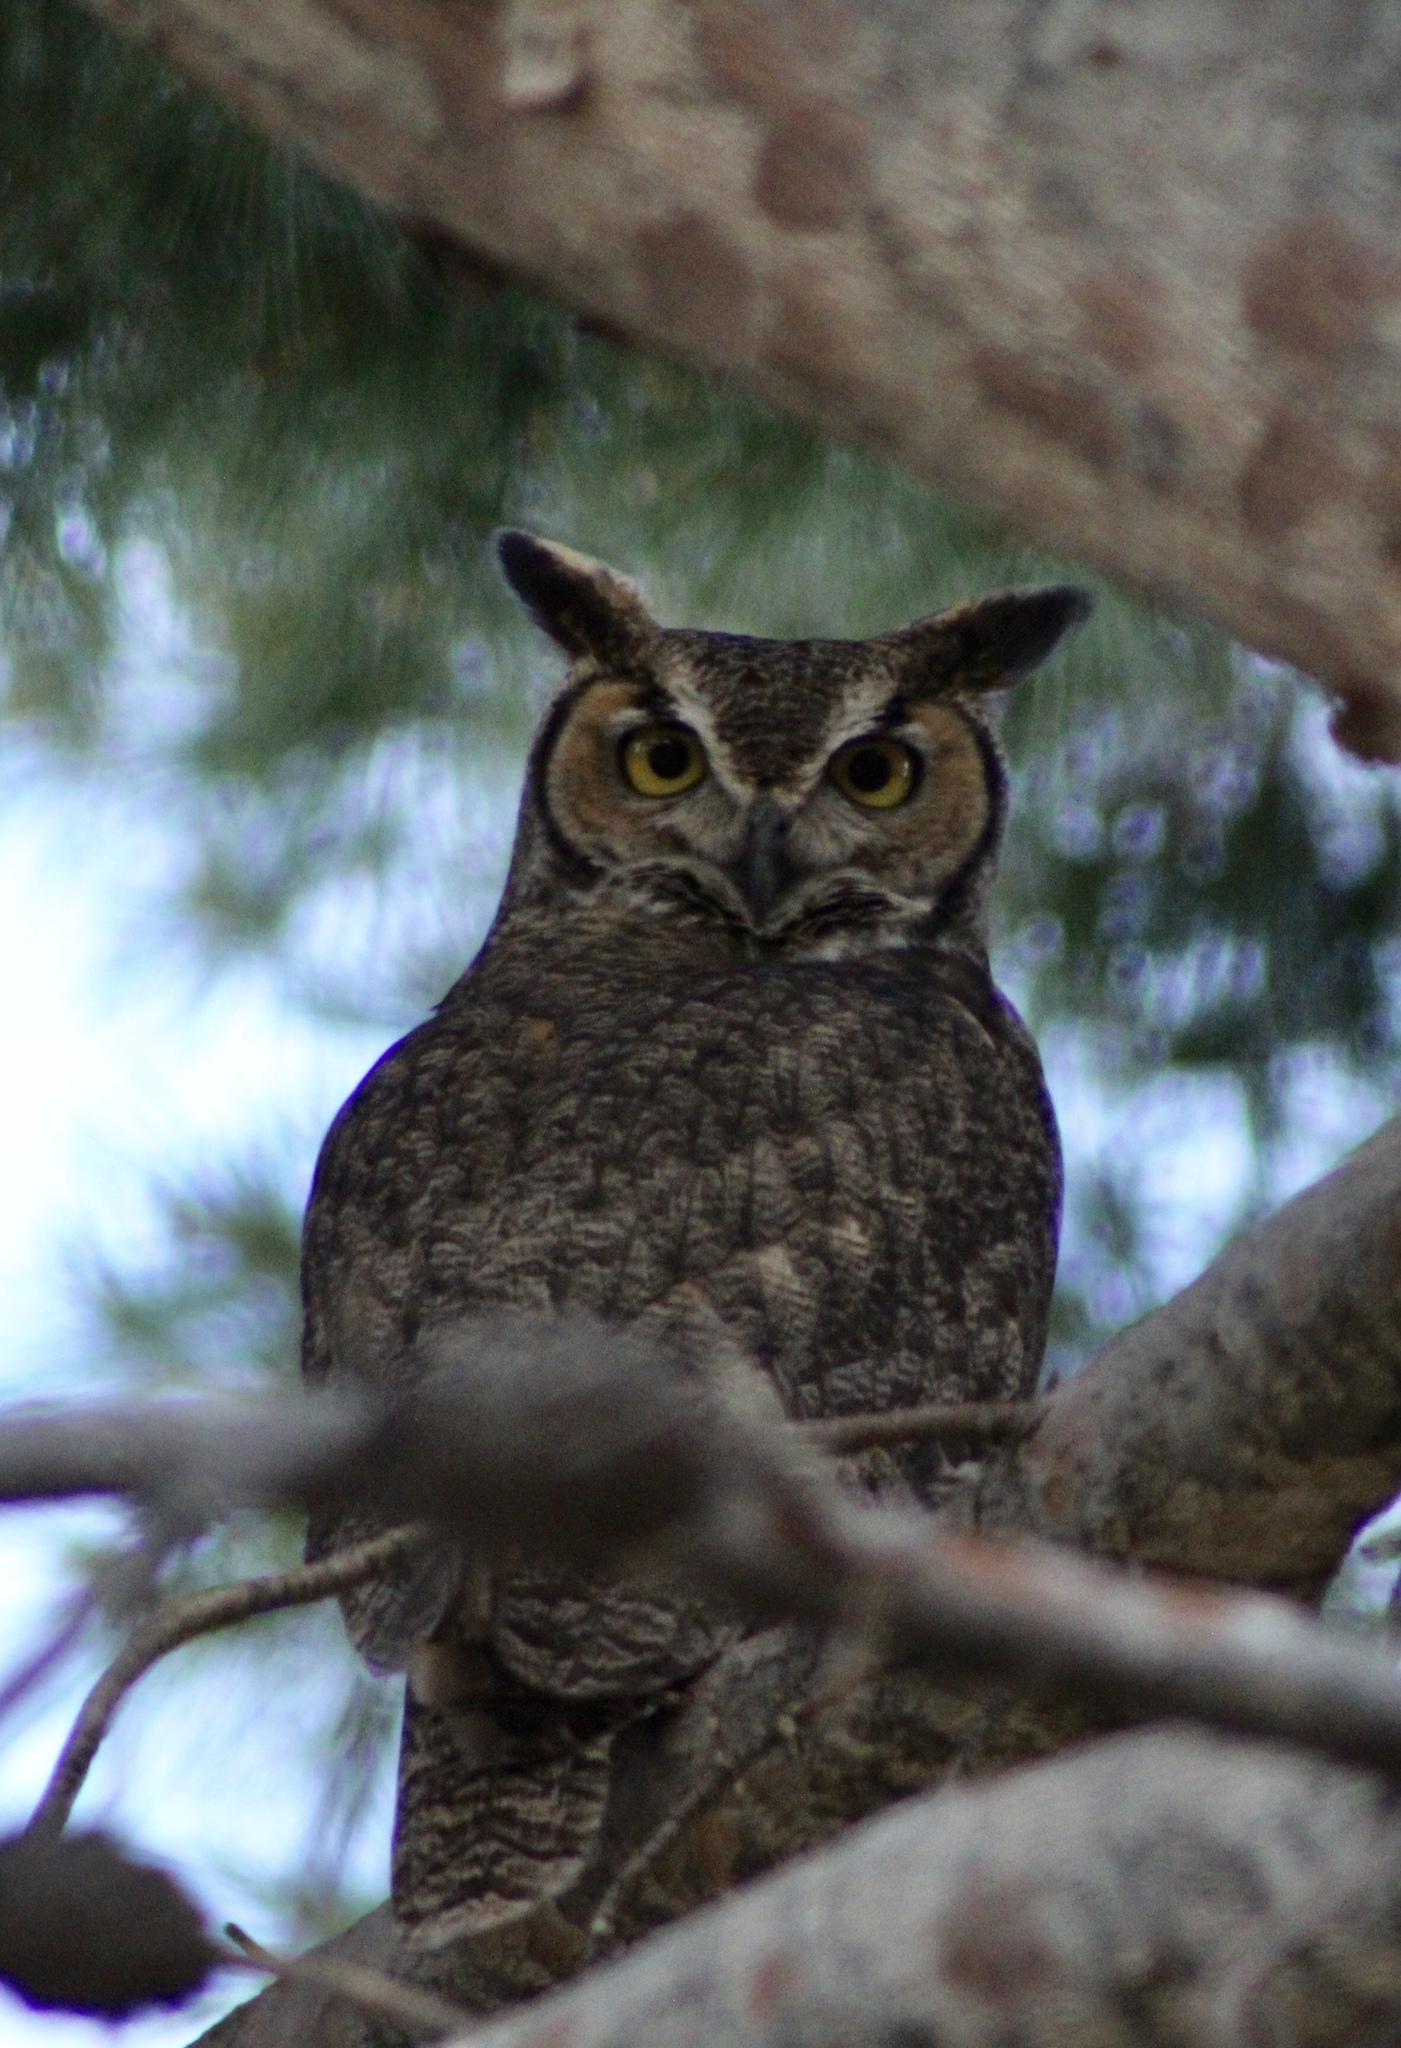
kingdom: Animalia
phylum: Chordata
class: Aves
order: Strigiformes
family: Strigidae
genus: Bubo
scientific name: Bubo virginianus
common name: Great horned owl
